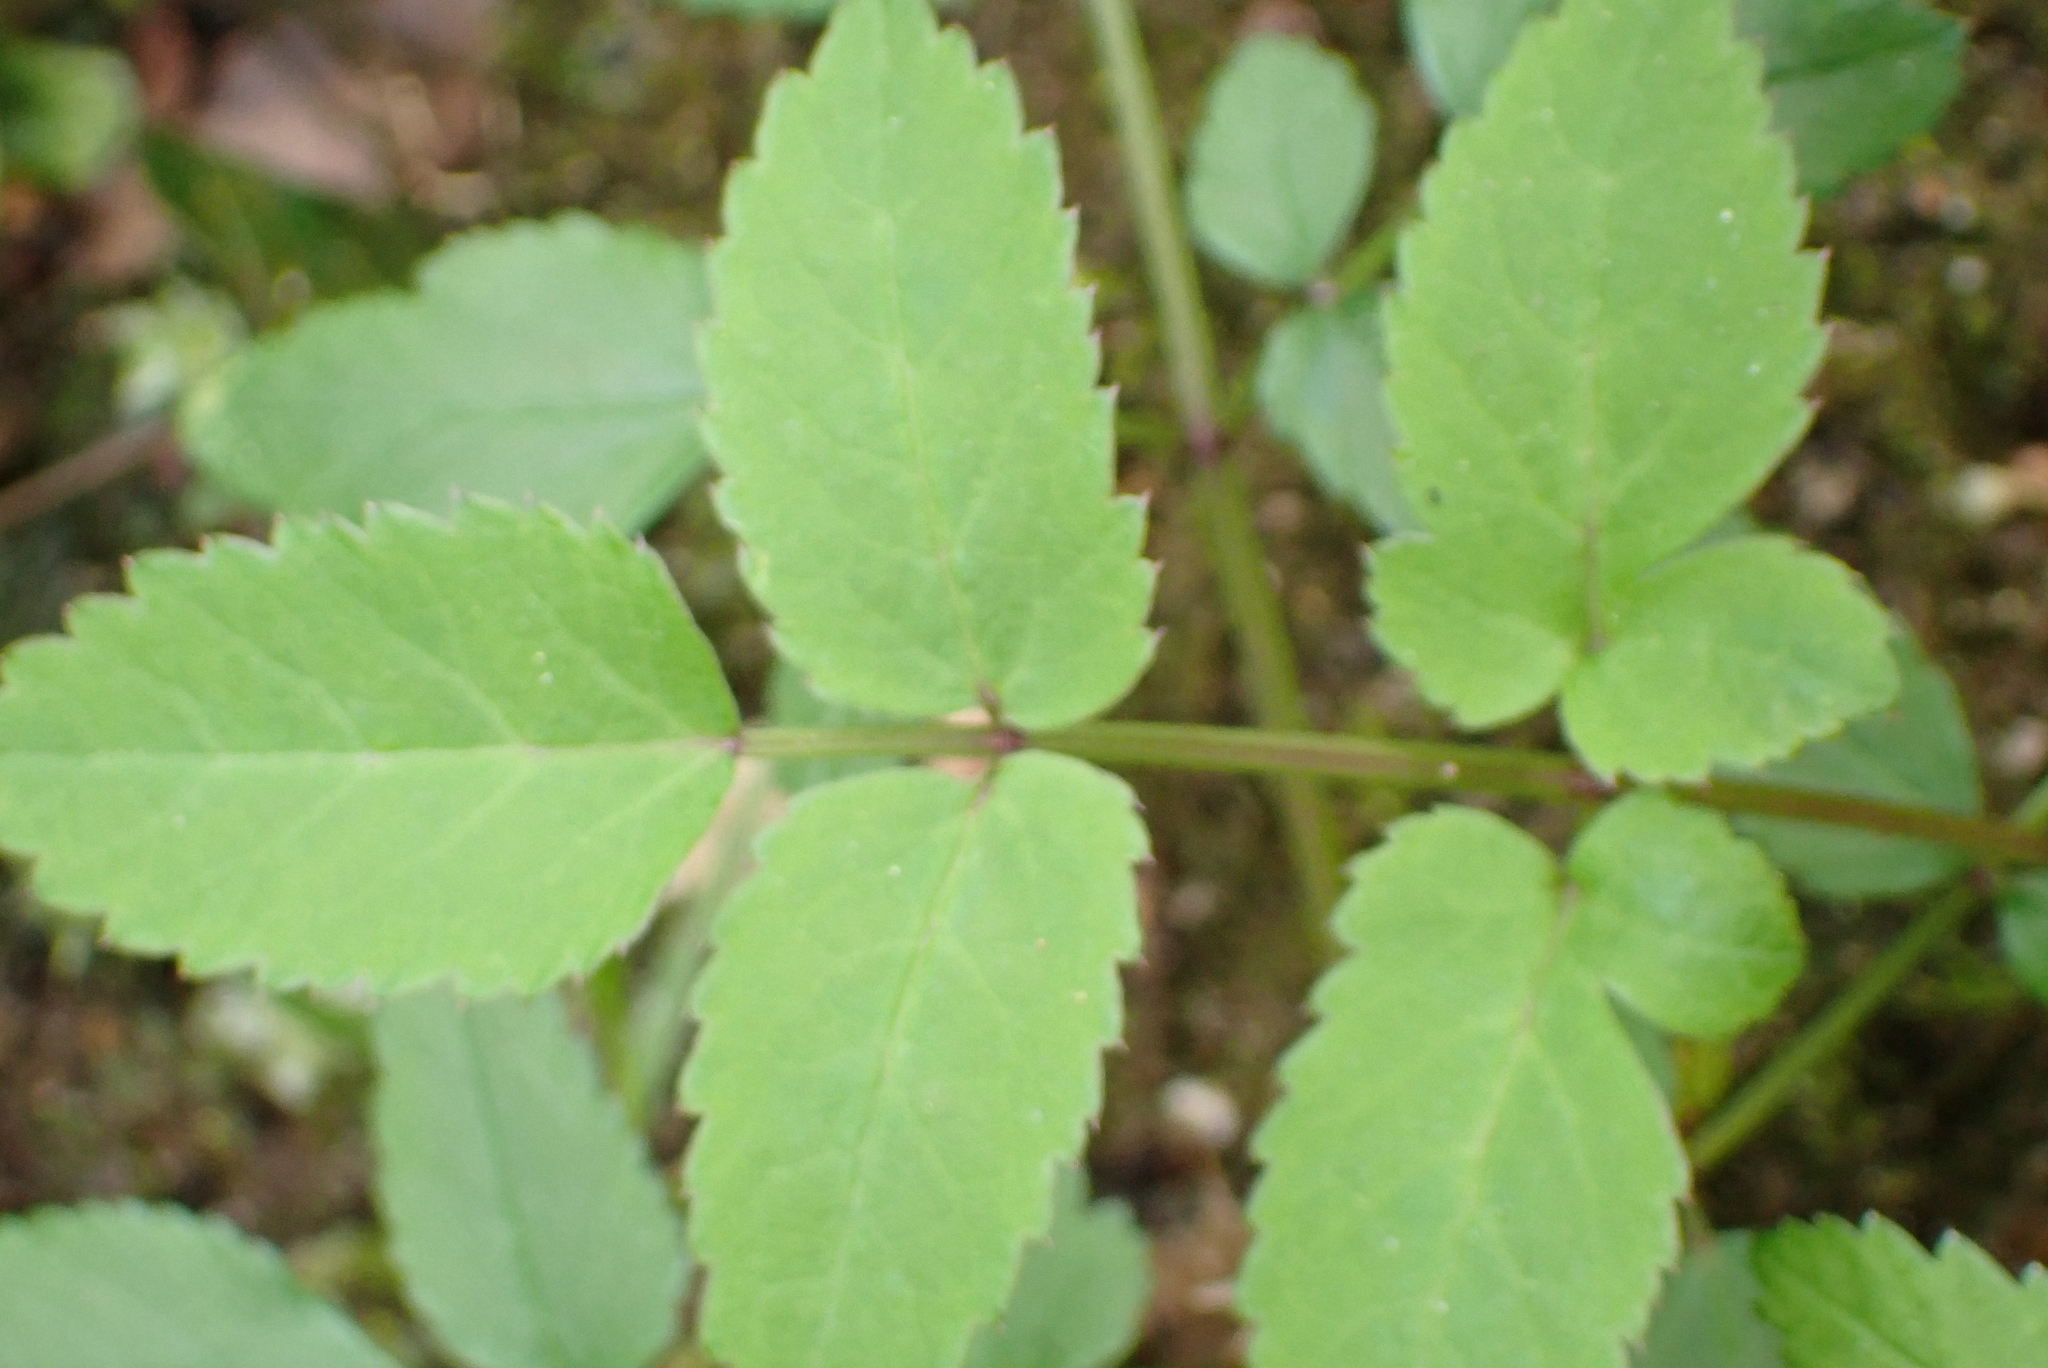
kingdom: Plantae
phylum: Tracheophyta
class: Magnoliopsida
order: Apiales
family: Apiaceae
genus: Angelica
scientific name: Angelica sylvestris
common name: Wild angelica
